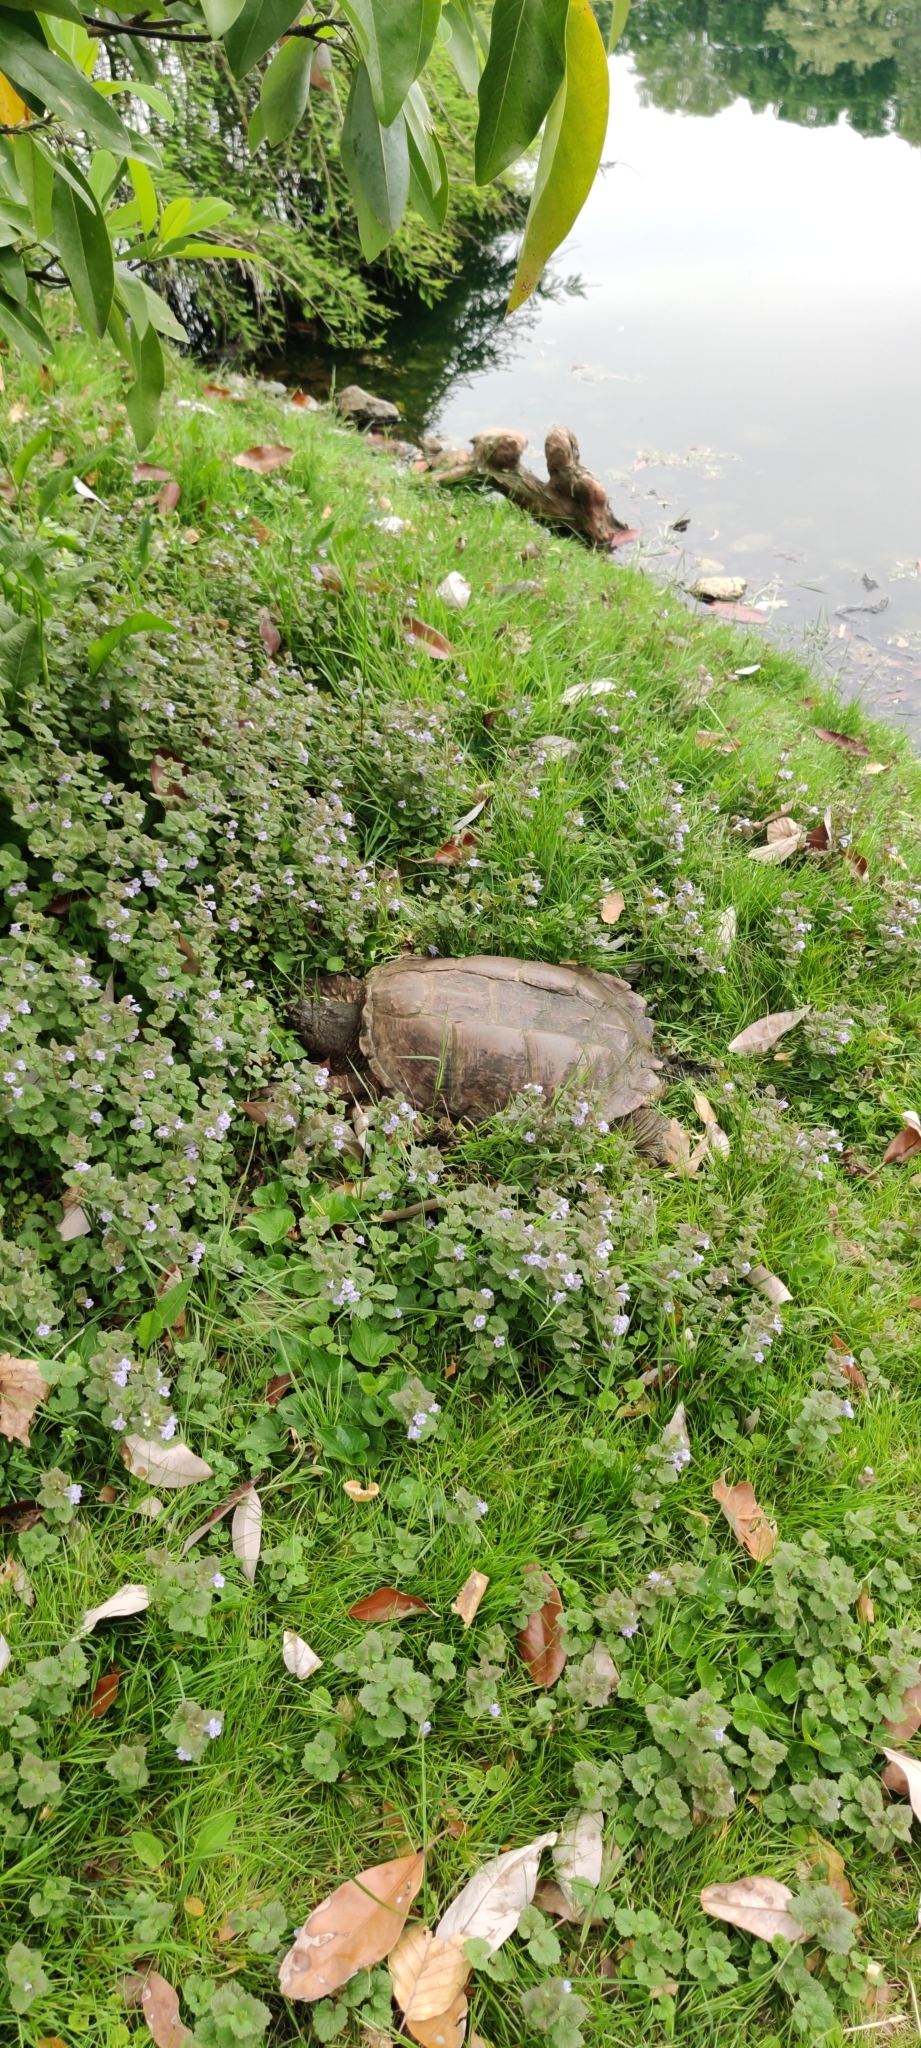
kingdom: Animalia
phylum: Chordata
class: Testudines
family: Chelydridae
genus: Chelydra
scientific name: Chelydra serpentina
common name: Common snapping turtle
